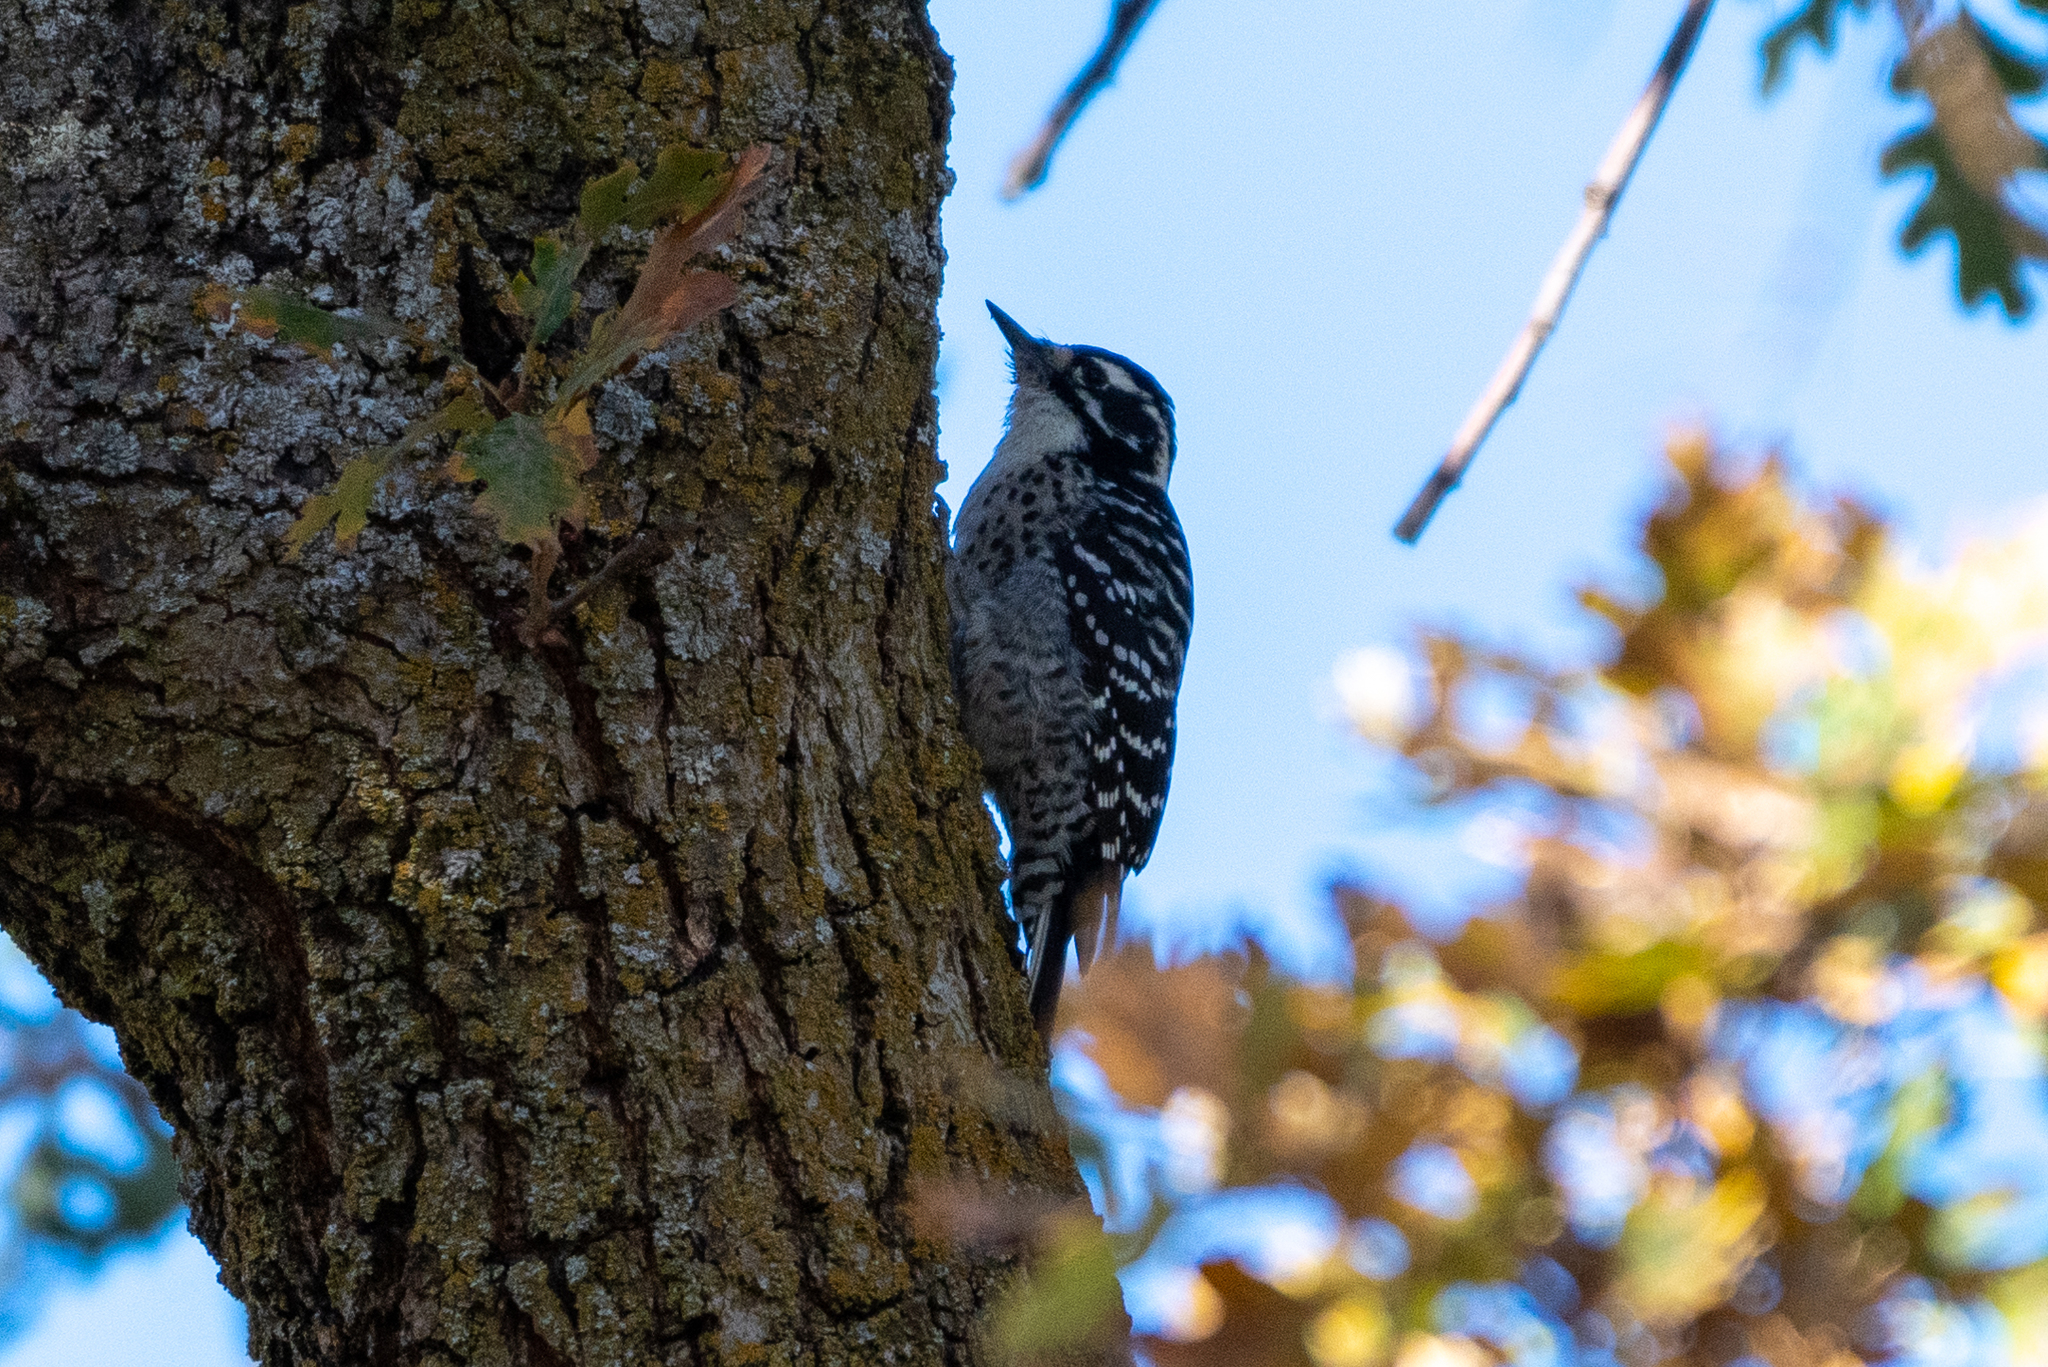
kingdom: Animalia
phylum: Chordata
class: Aves
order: Piciformes
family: Picidae
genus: Dryobates
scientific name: Dryobates nuttallii
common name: Nuttall's woodpecker
